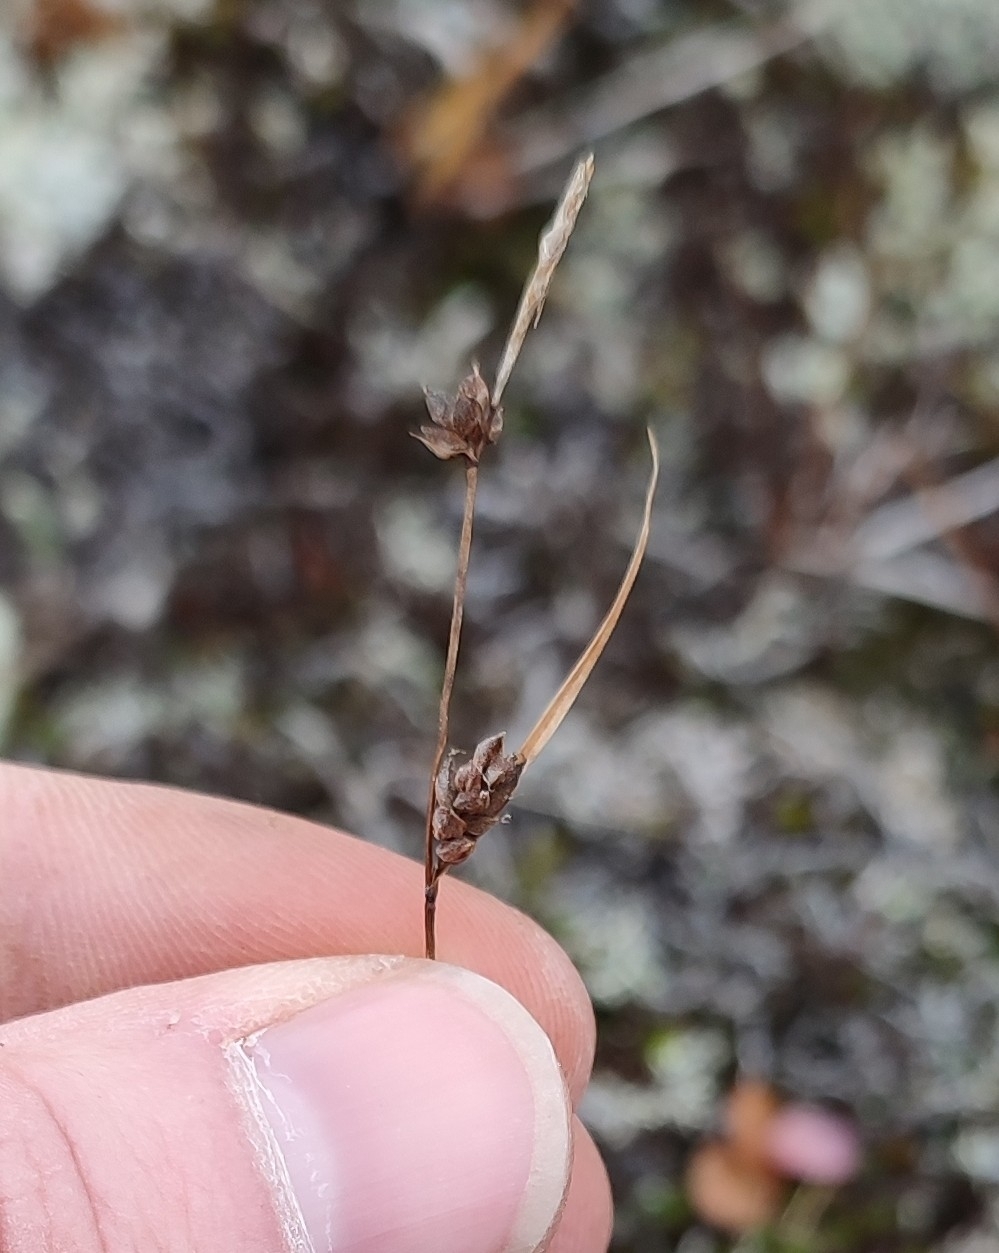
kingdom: Plantae
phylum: Tracheophyta
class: Liliopsida
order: Poales
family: Cyperaceae
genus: Carex
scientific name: Carex globularis
